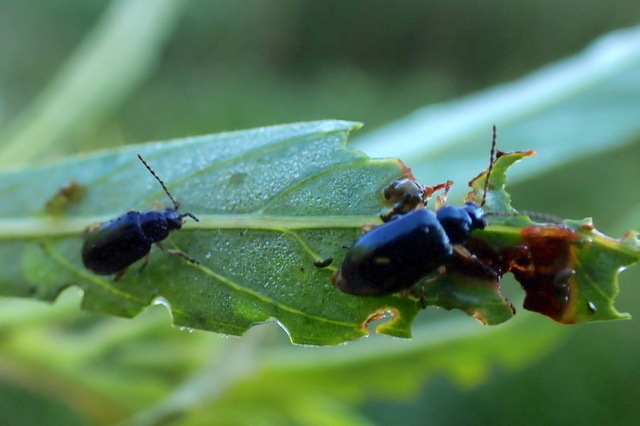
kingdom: Animalia
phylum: Arthropoda
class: Insecta
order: Coleoptera
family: Chrysomelidae
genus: Lysathia
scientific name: Lysathia ludoviciana
